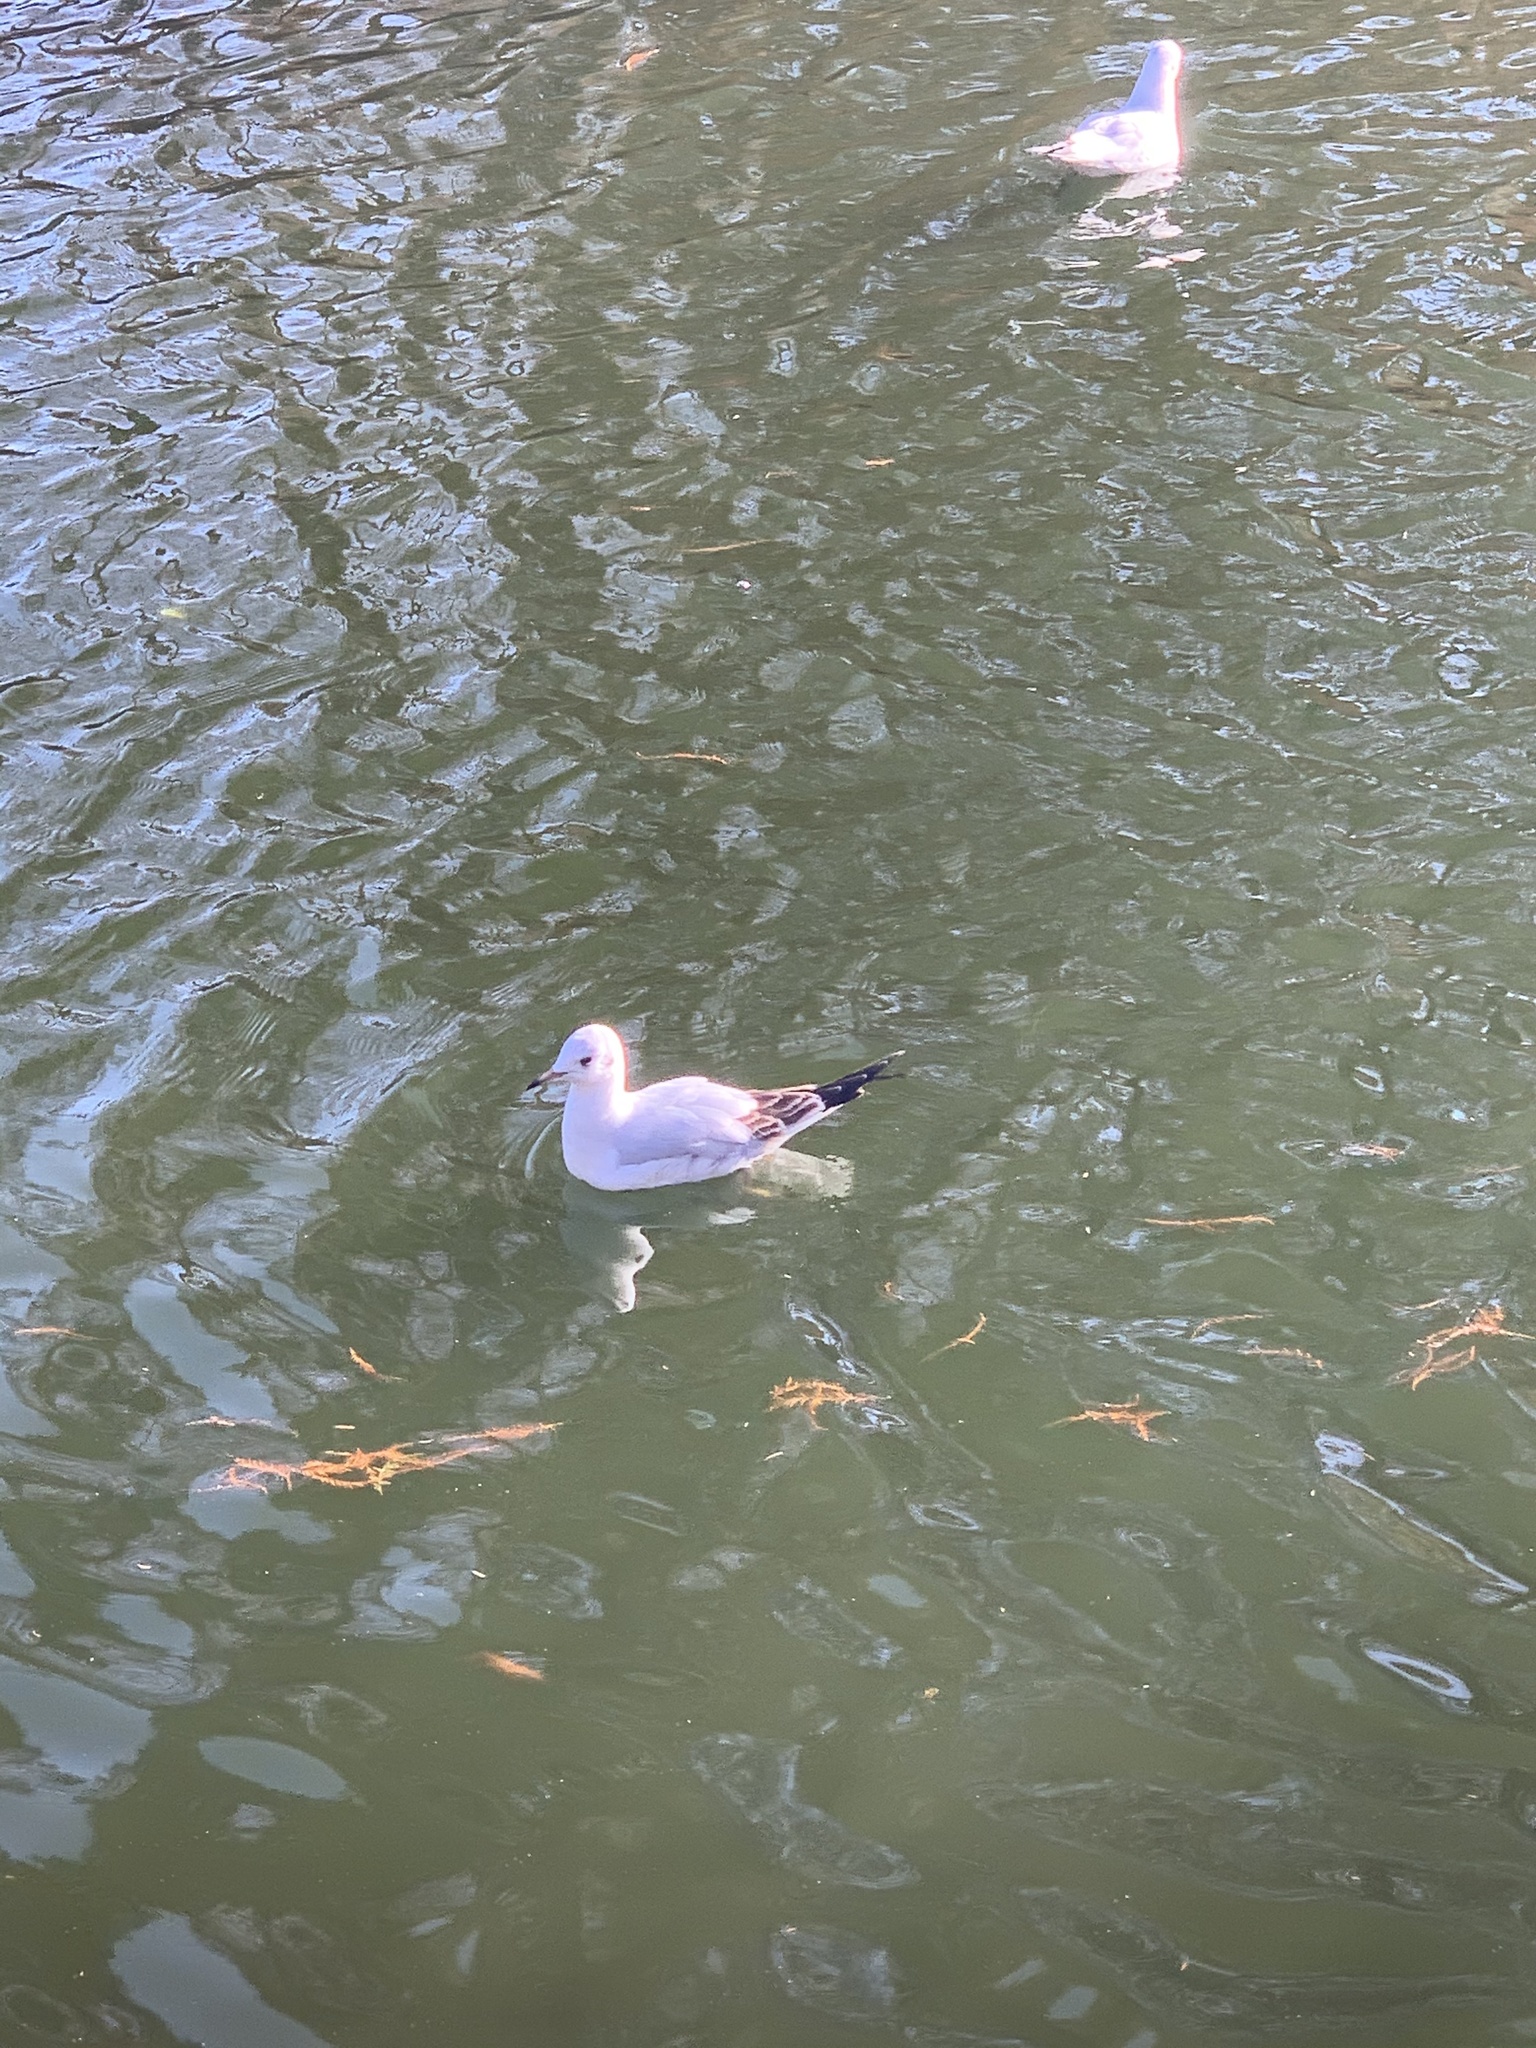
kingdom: Animalia
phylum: Chordata
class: Aves
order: Charadriiformes
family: Laridae
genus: Chroicocephalus
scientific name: Chroicocephalus ridibundus
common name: Black-headed gull
